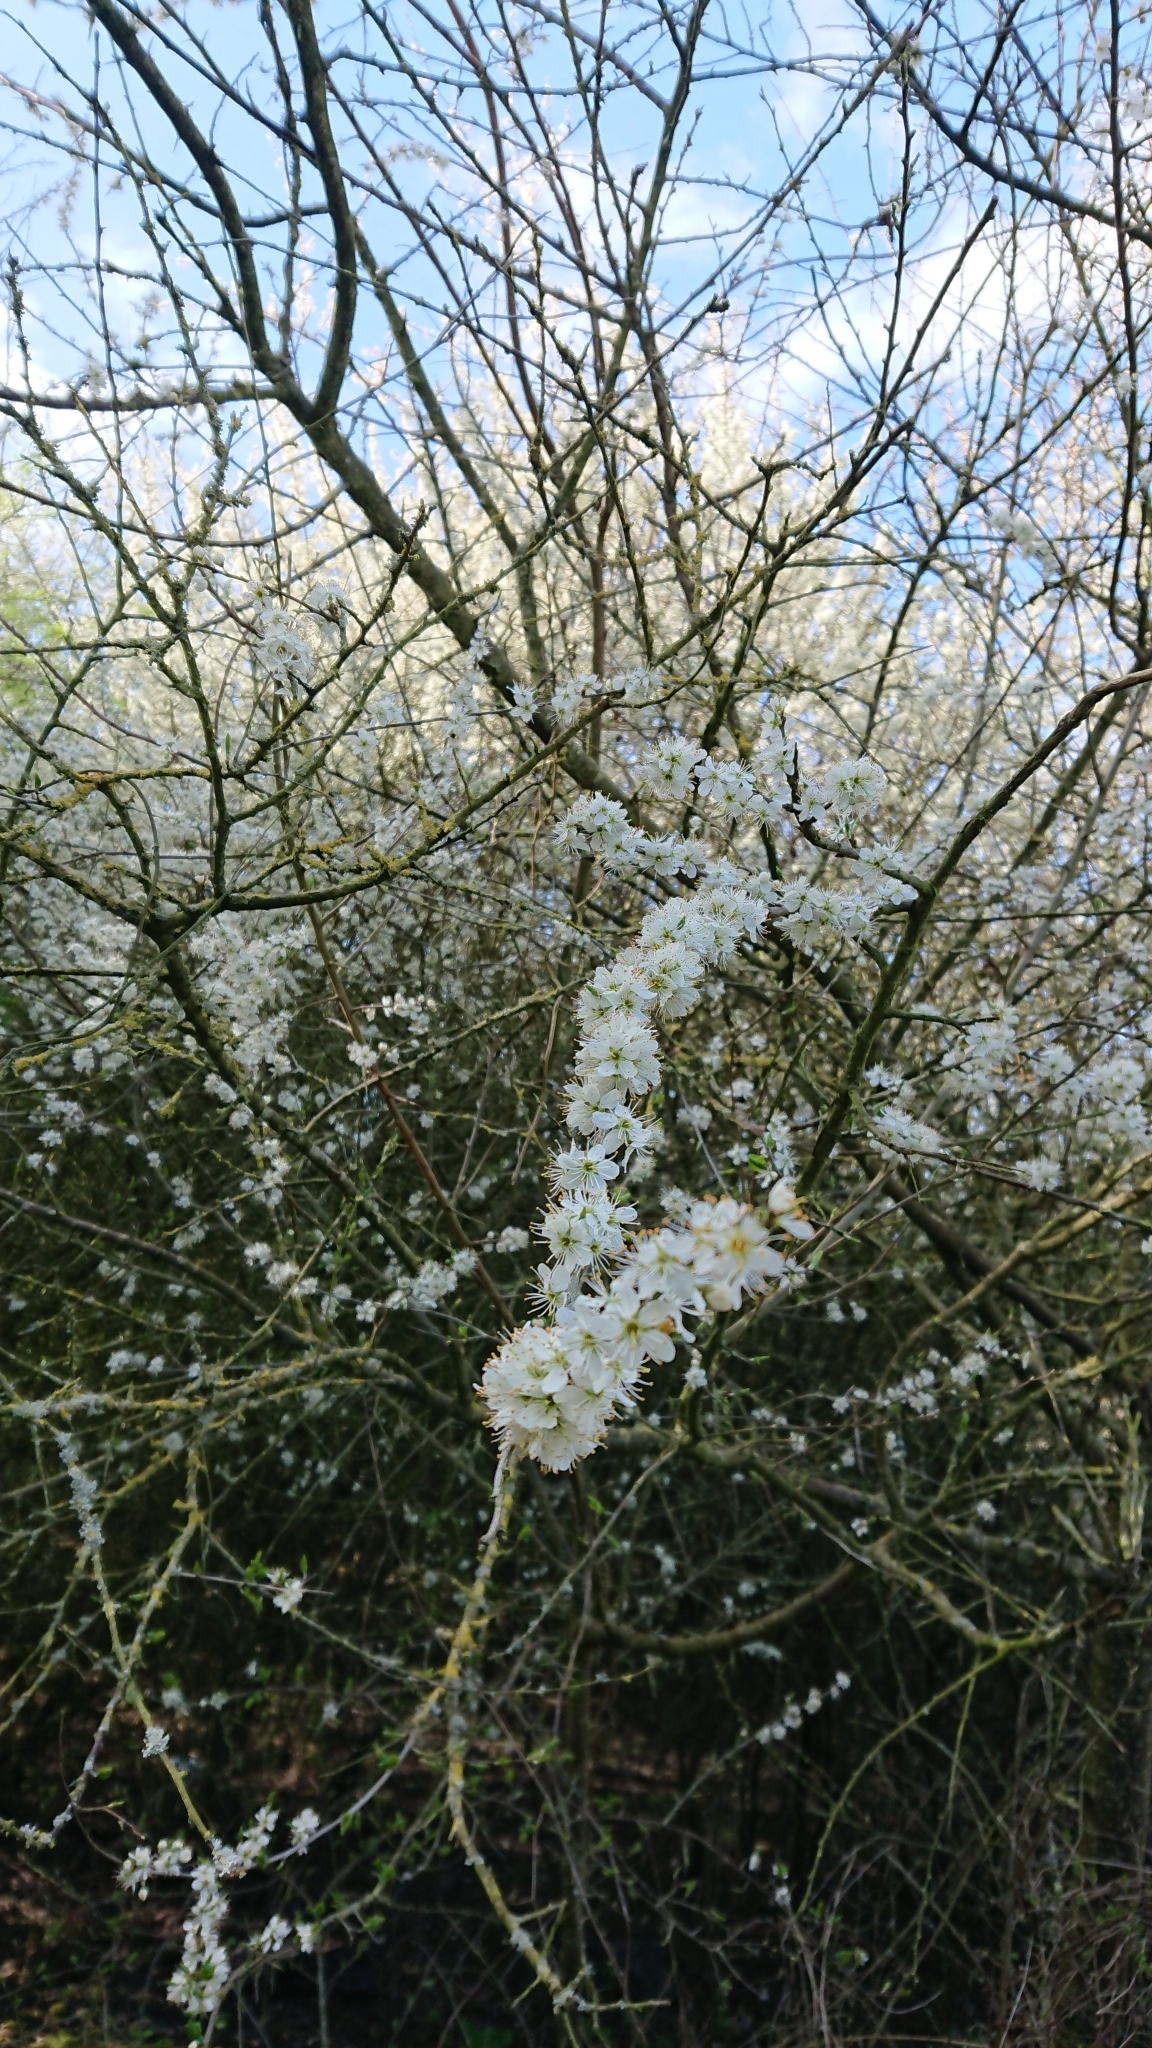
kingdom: Plantae
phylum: Tracheophyta
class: Magnoliopsida
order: Rosales
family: Rosaceae
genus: Prunus
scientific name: Prunus spinosa
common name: Blackthorn
